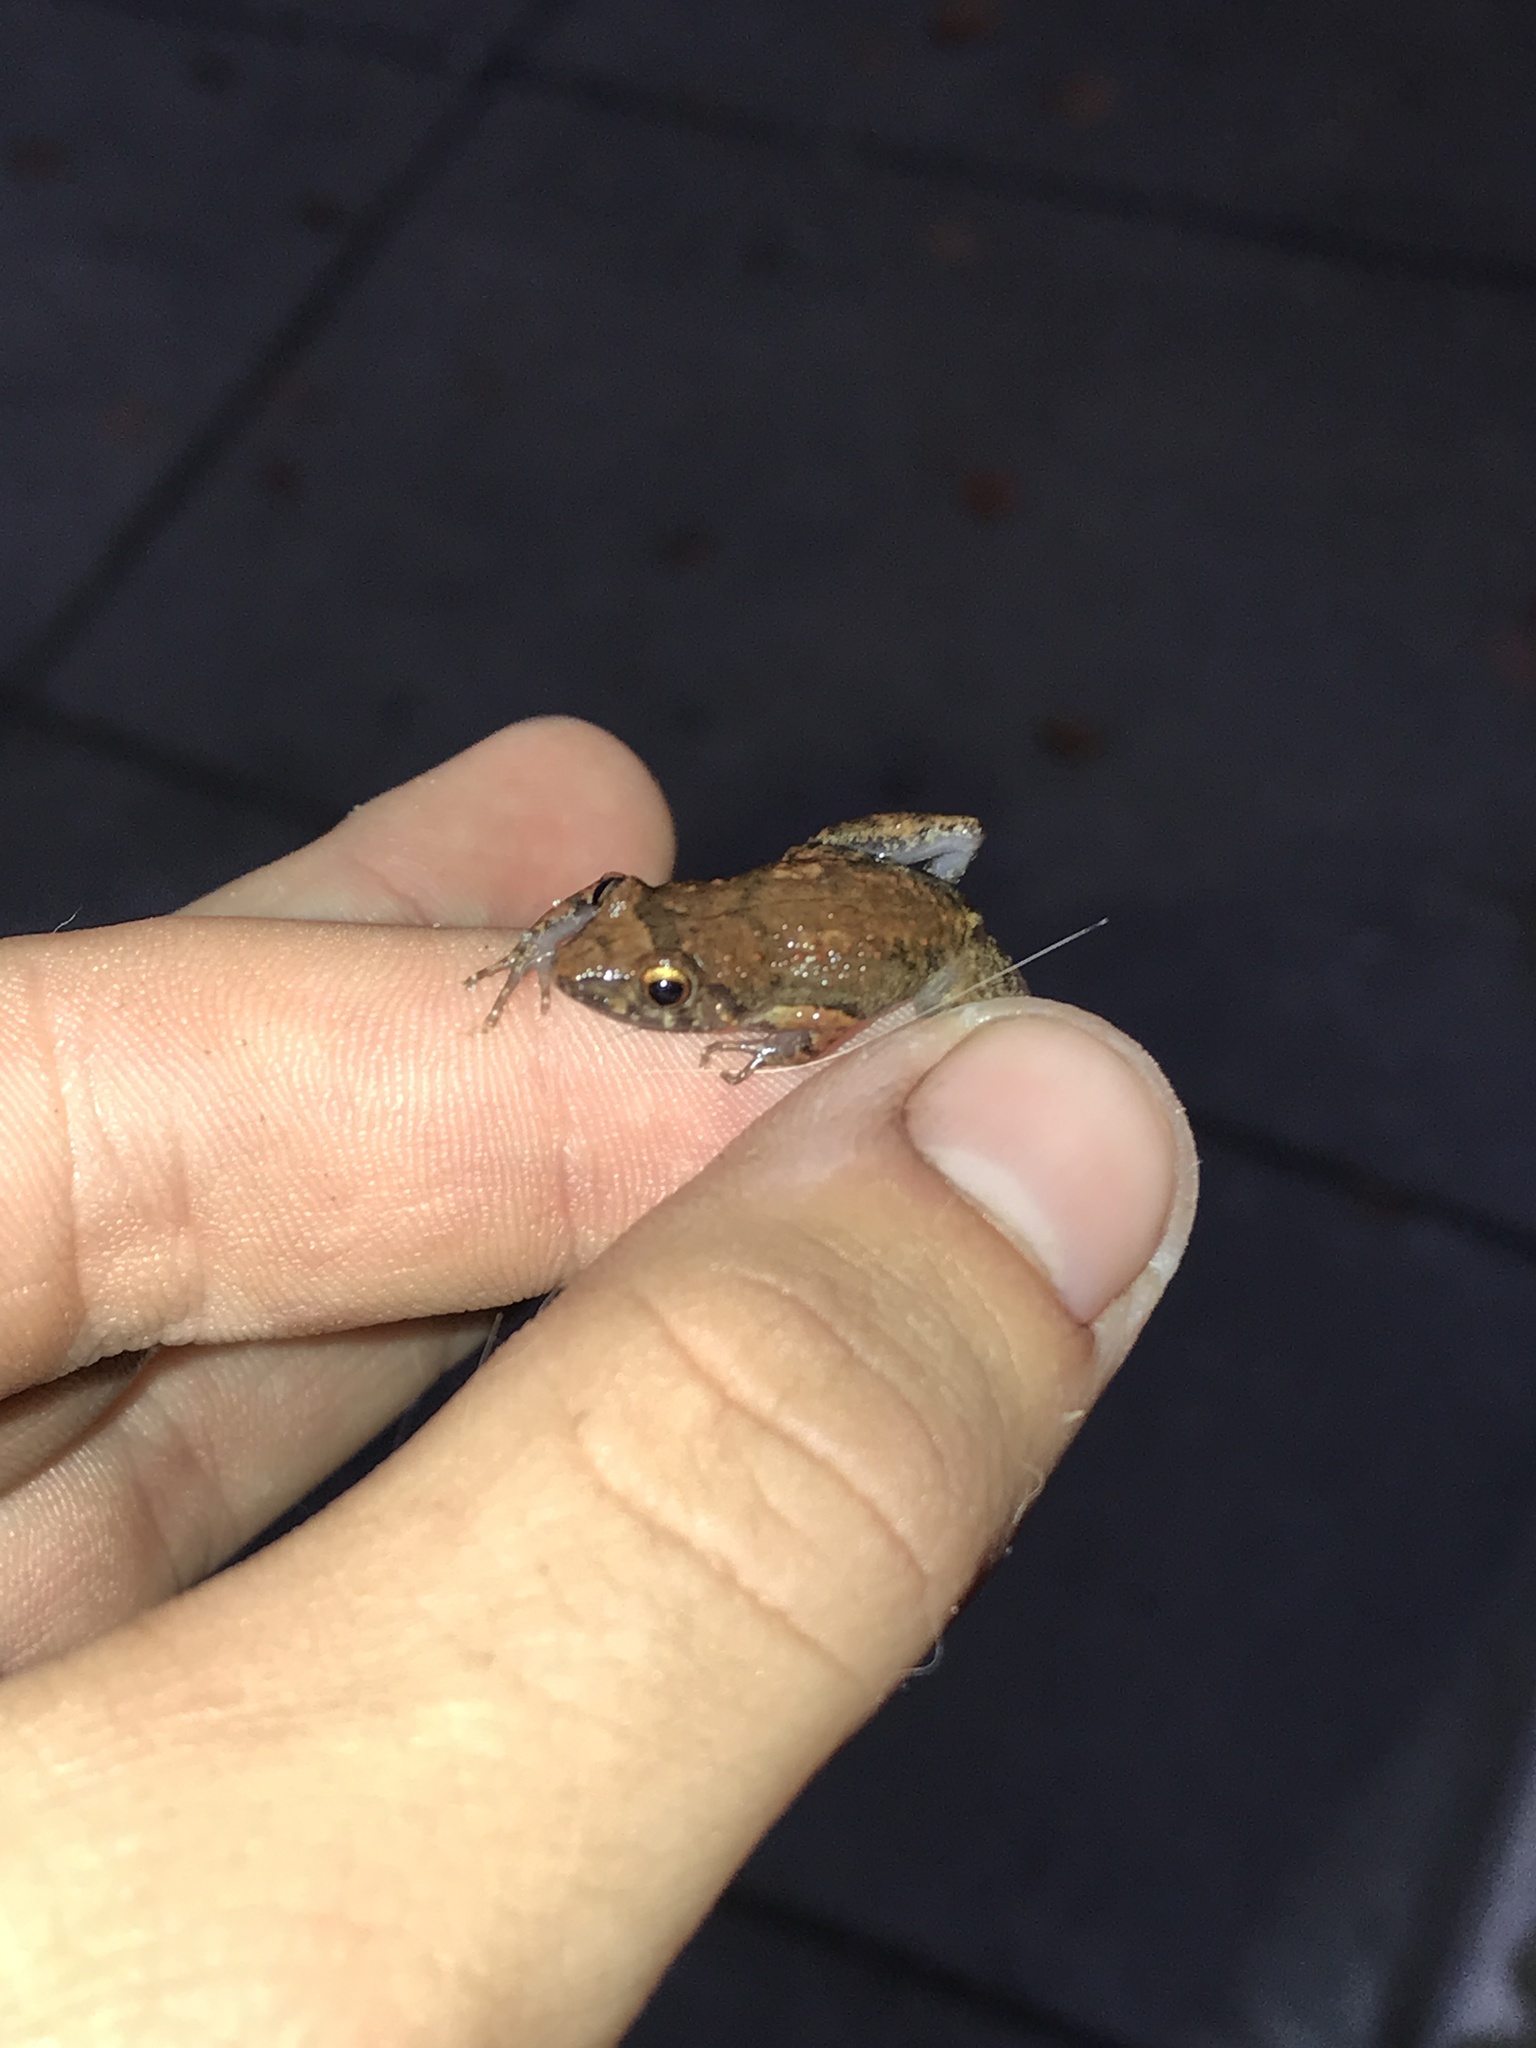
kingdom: Animalia
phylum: Chordata
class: Amphibia
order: Anura
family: Eleutherodactylidae
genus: Eleutherodactylus
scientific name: Eleutherodactylus planirostris
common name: Greenhouse frog
